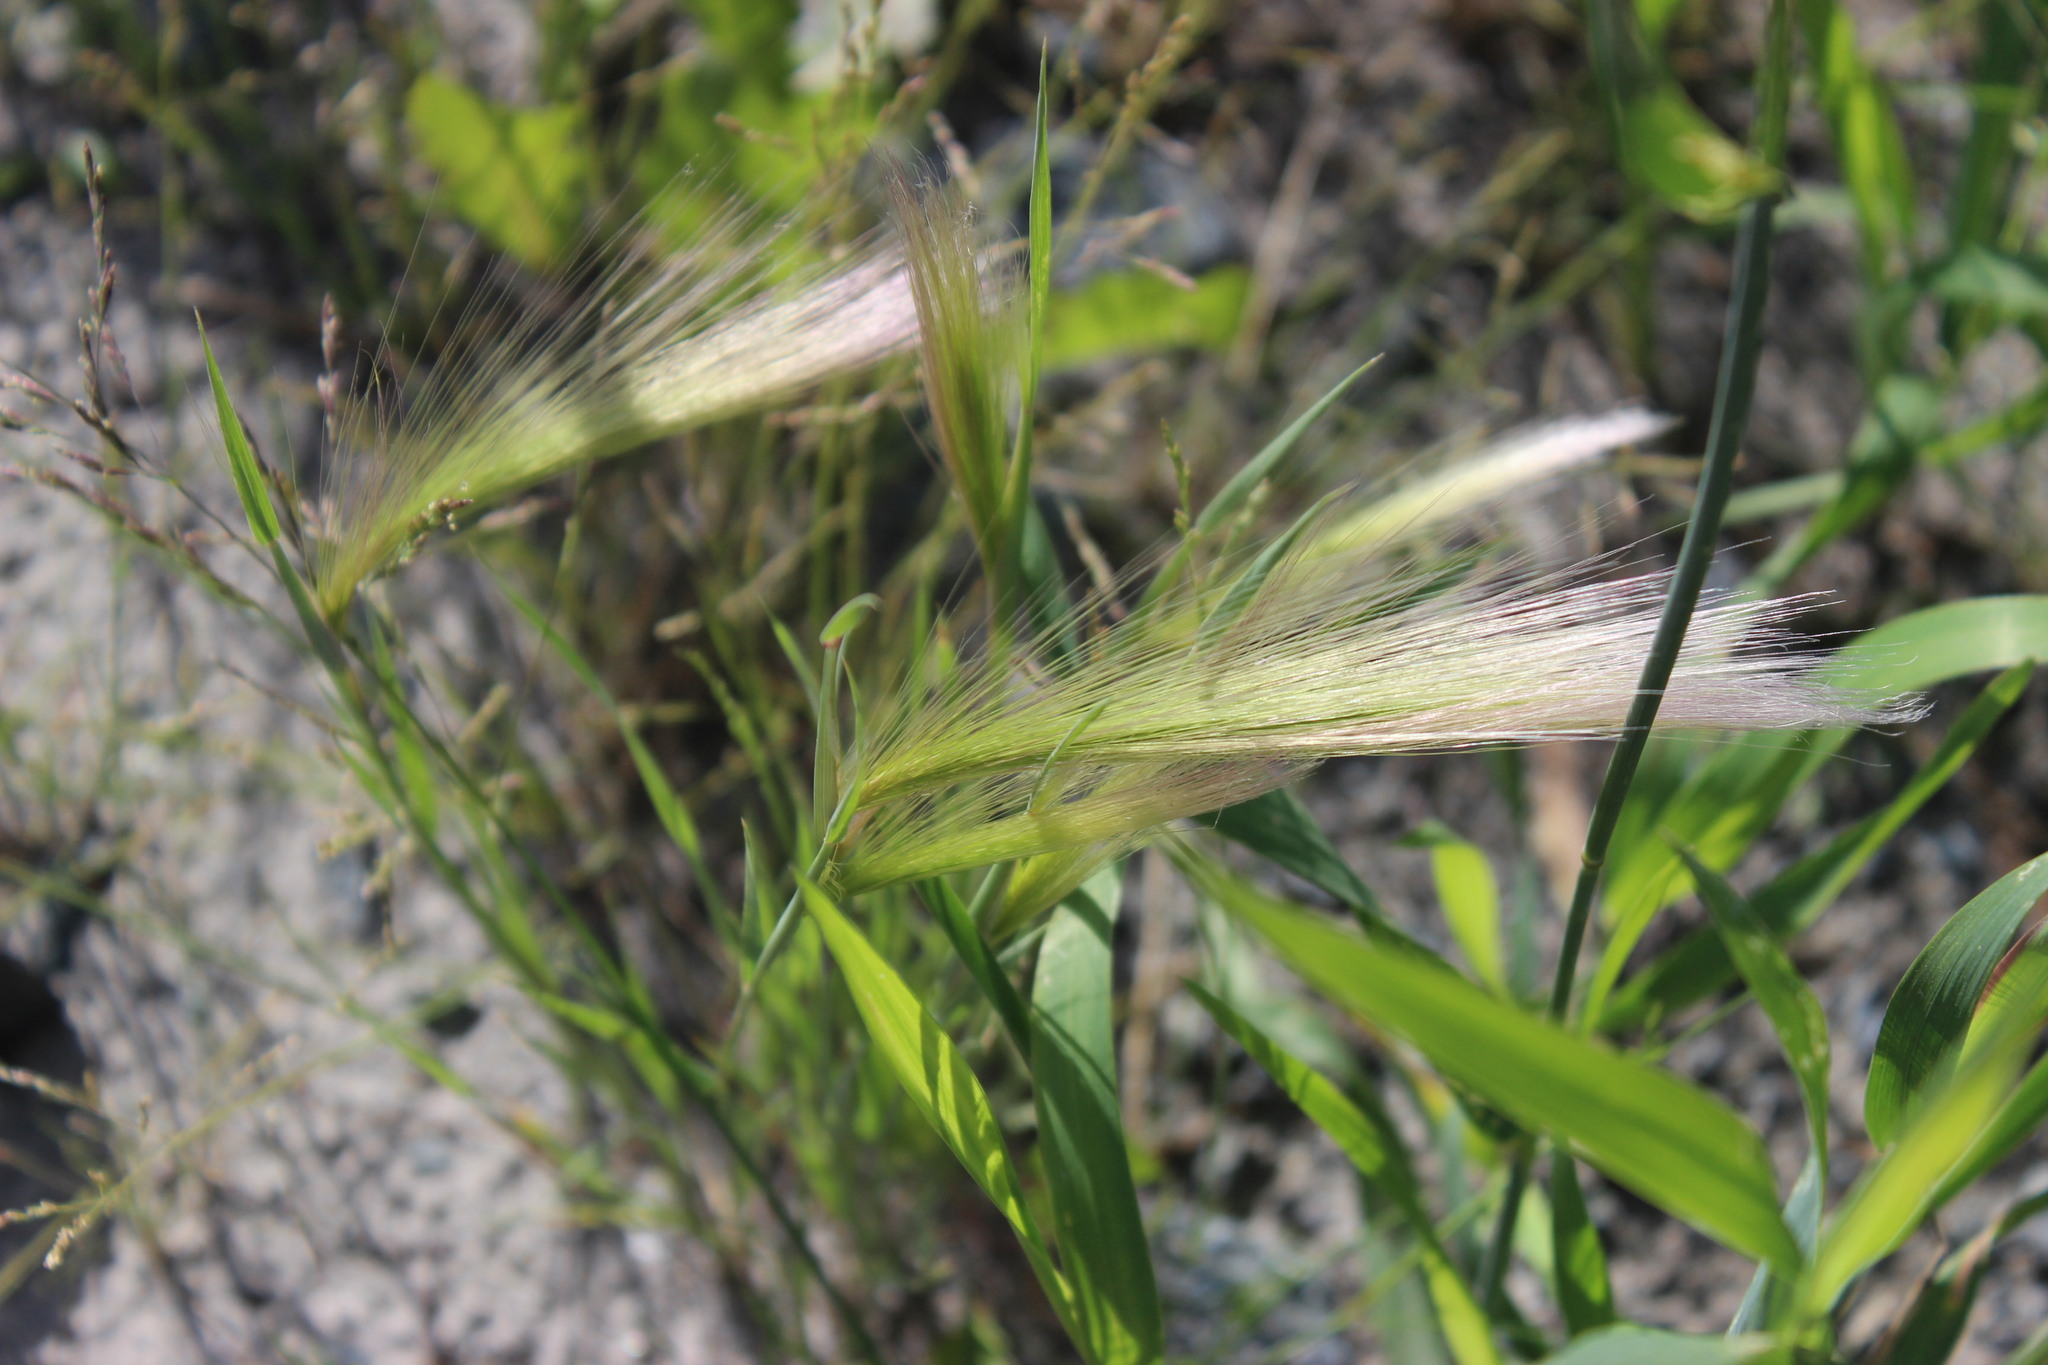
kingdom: Plantae
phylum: Tracheophyta
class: Liliopsida
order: Poales
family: Poaceae
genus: Hordeum
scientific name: Hordeum jubatum
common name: Foxtail barley
